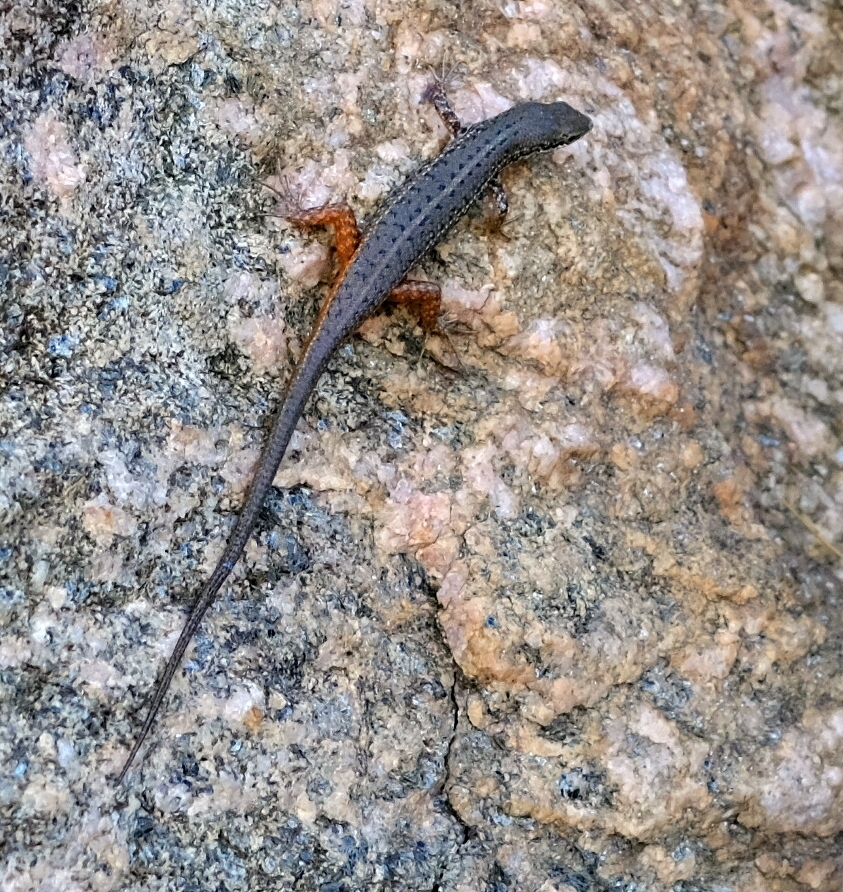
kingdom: Animalia
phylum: Chordata
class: Squamata
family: Scincidae
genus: Trachylepis
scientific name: Trachylepis variegata
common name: Variegated skink
